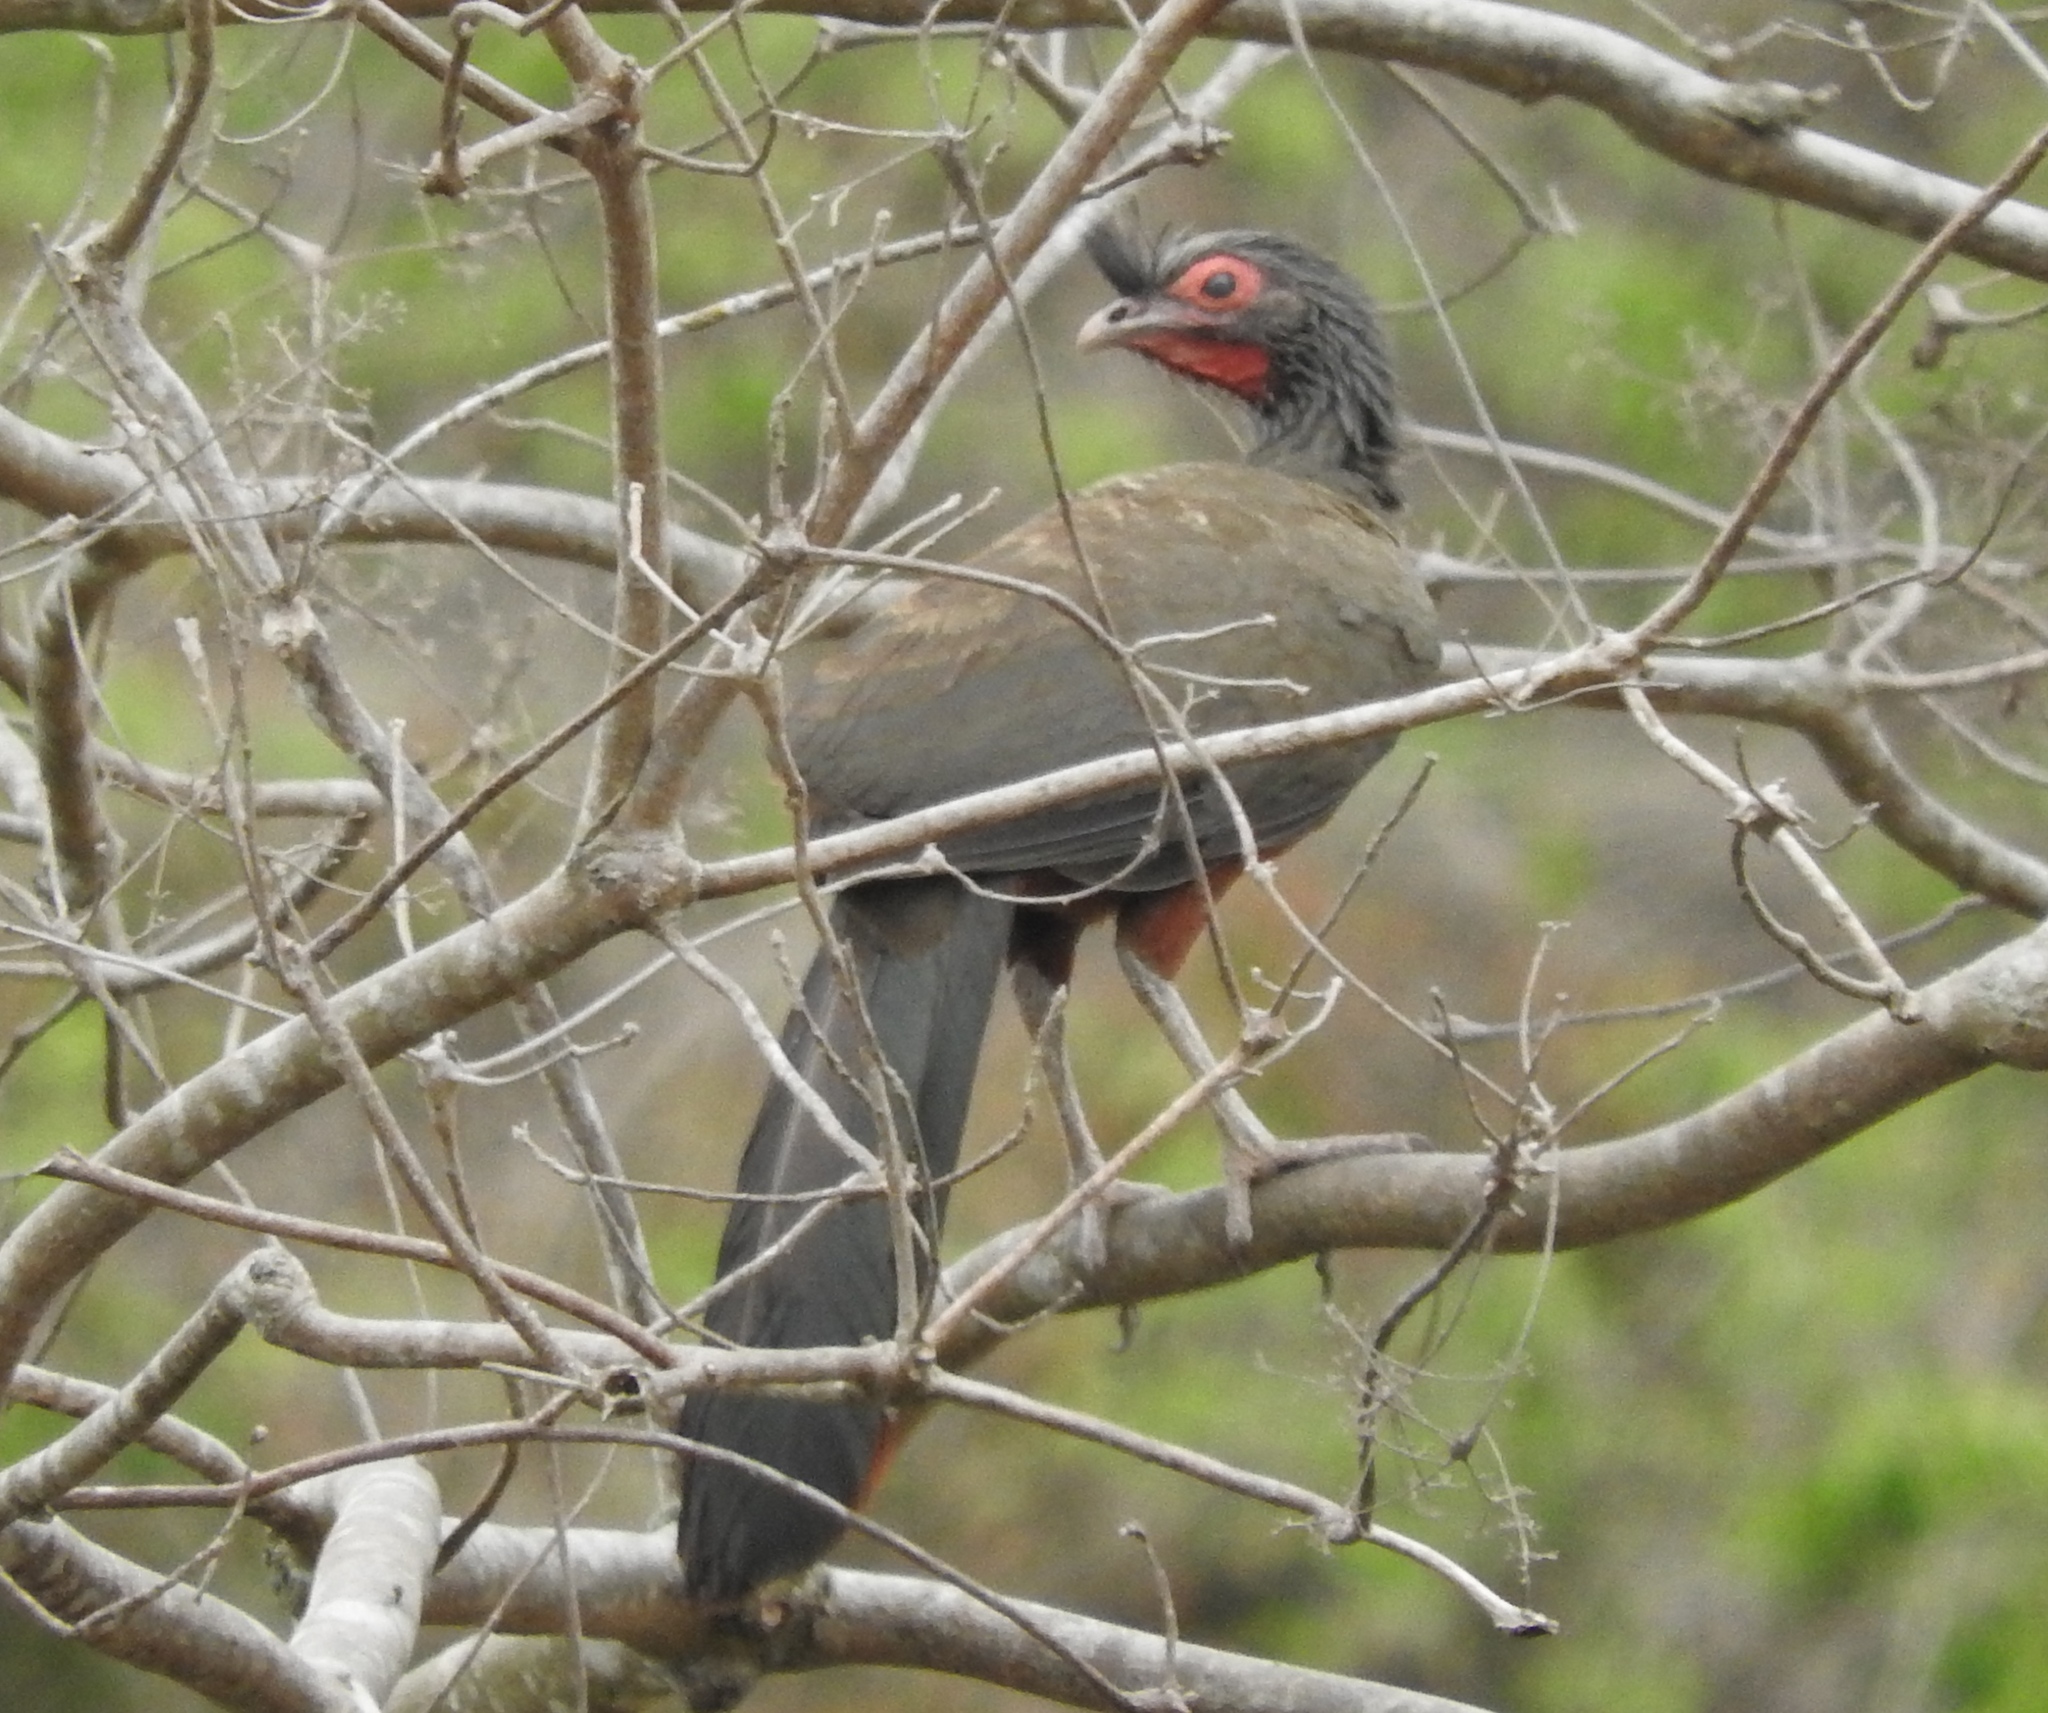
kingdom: Animalia
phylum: Chordata
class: Aves
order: Galliformes
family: Cracidae
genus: Ortalis
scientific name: Ortalis wagleri
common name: Rufous-bellied chachalaca
